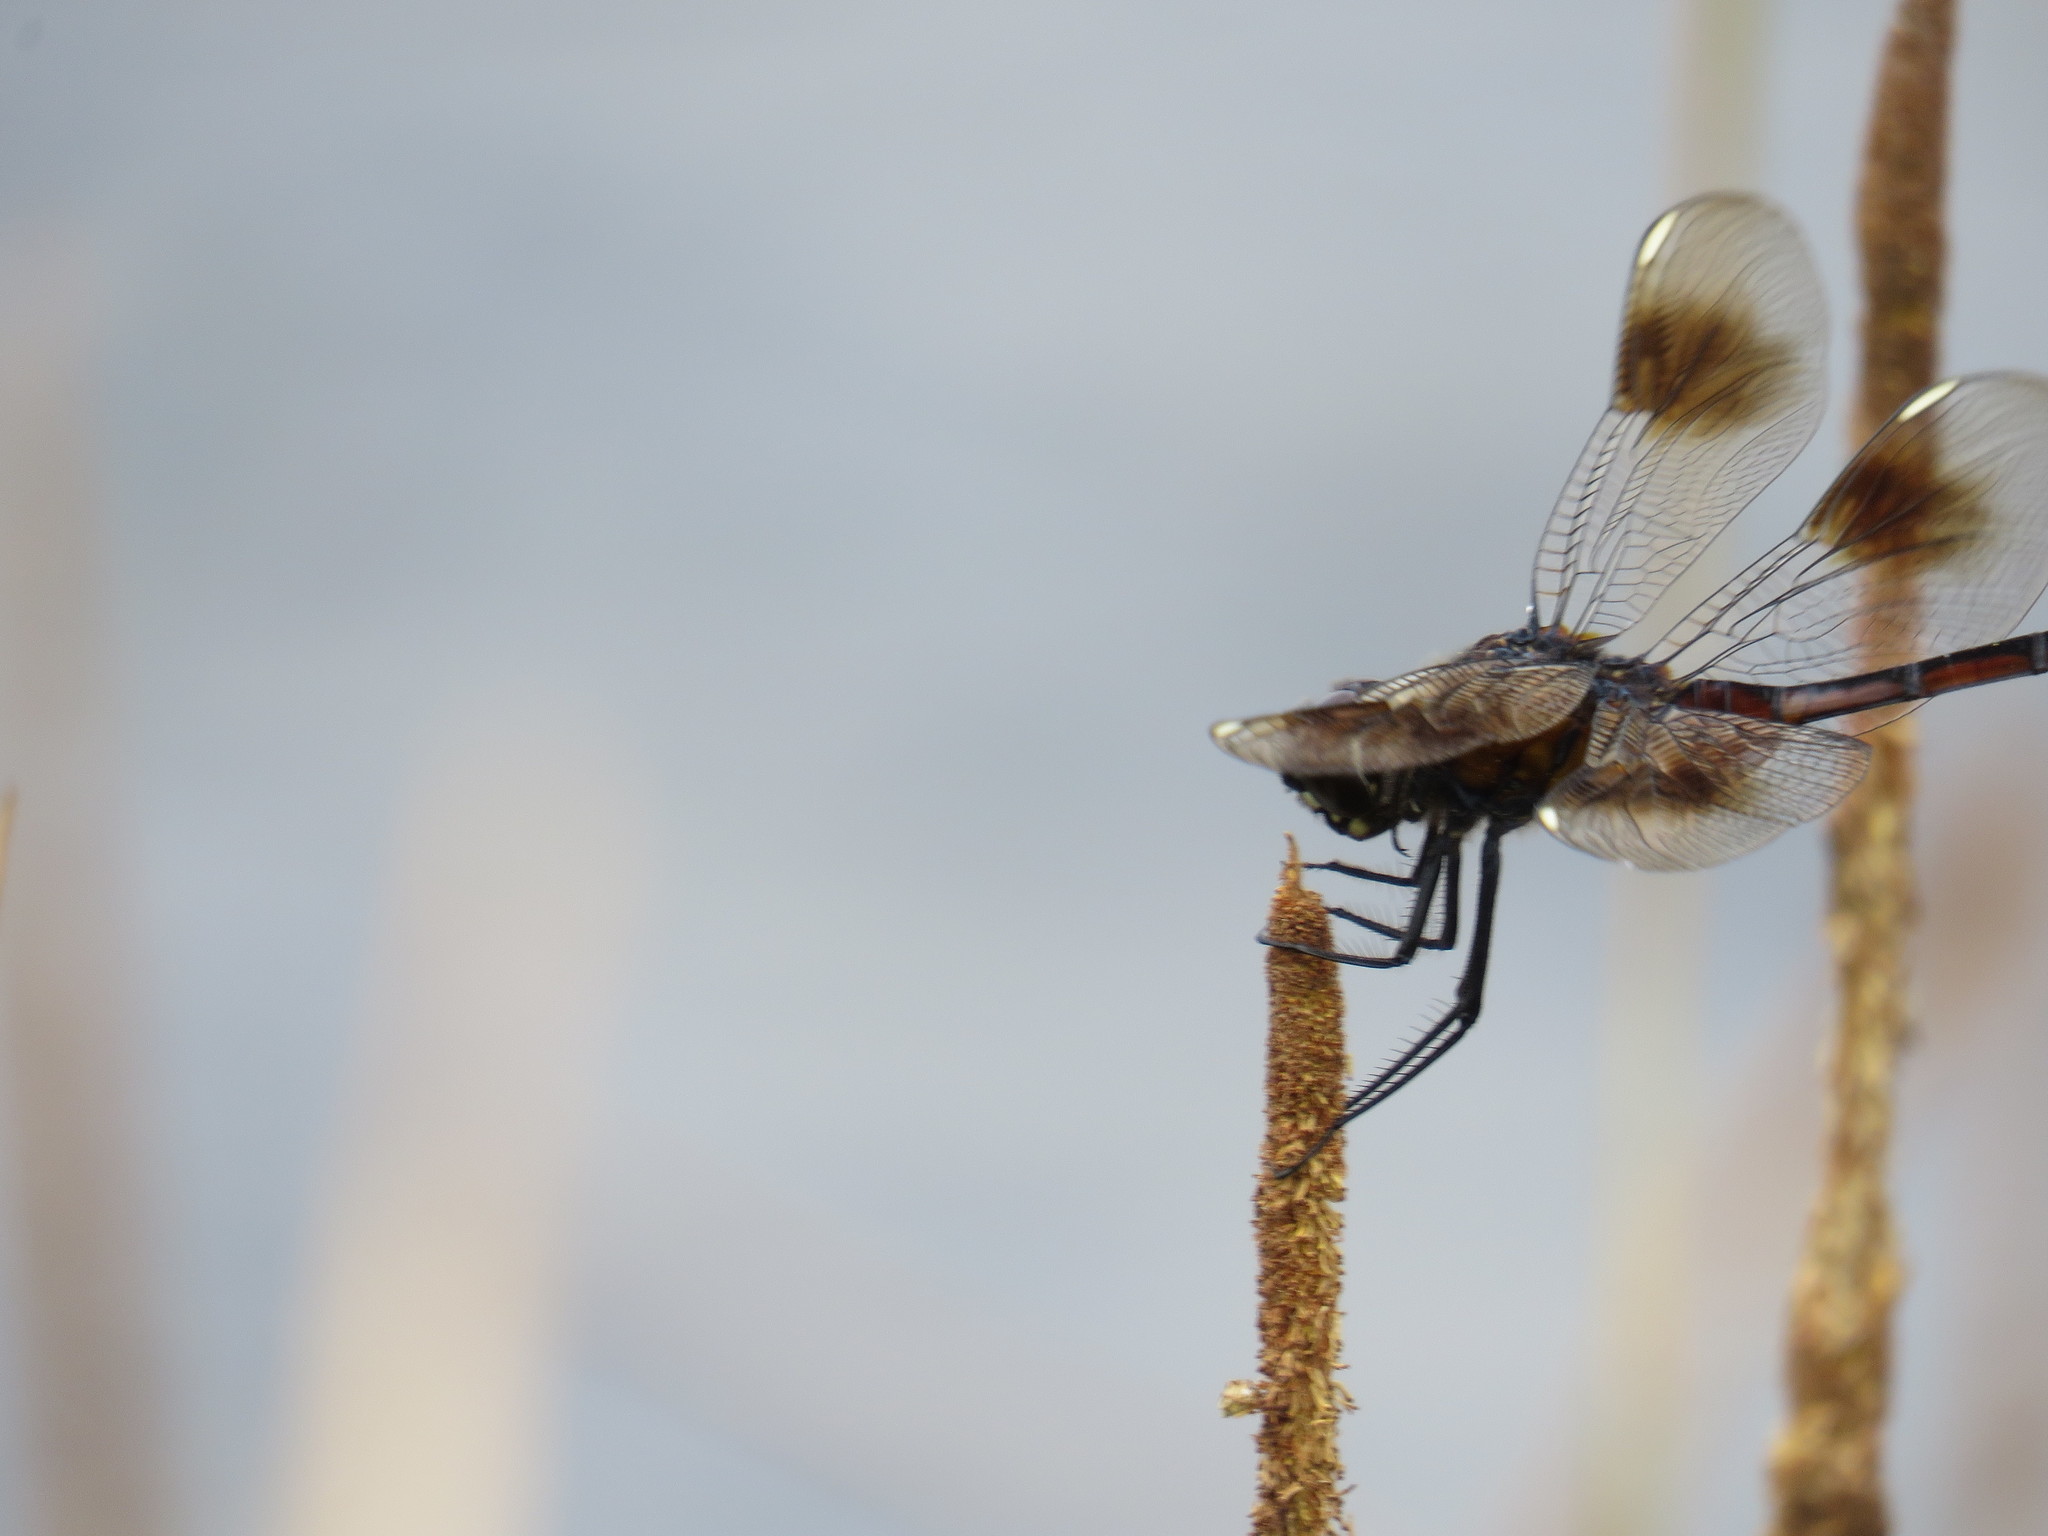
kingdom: Animalia
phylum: Arthropoda
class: Insecta
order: Odonata
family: Libellulidae
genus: Brachymesia
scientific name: Brachymesia gravida
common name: Four-spotted pennant
